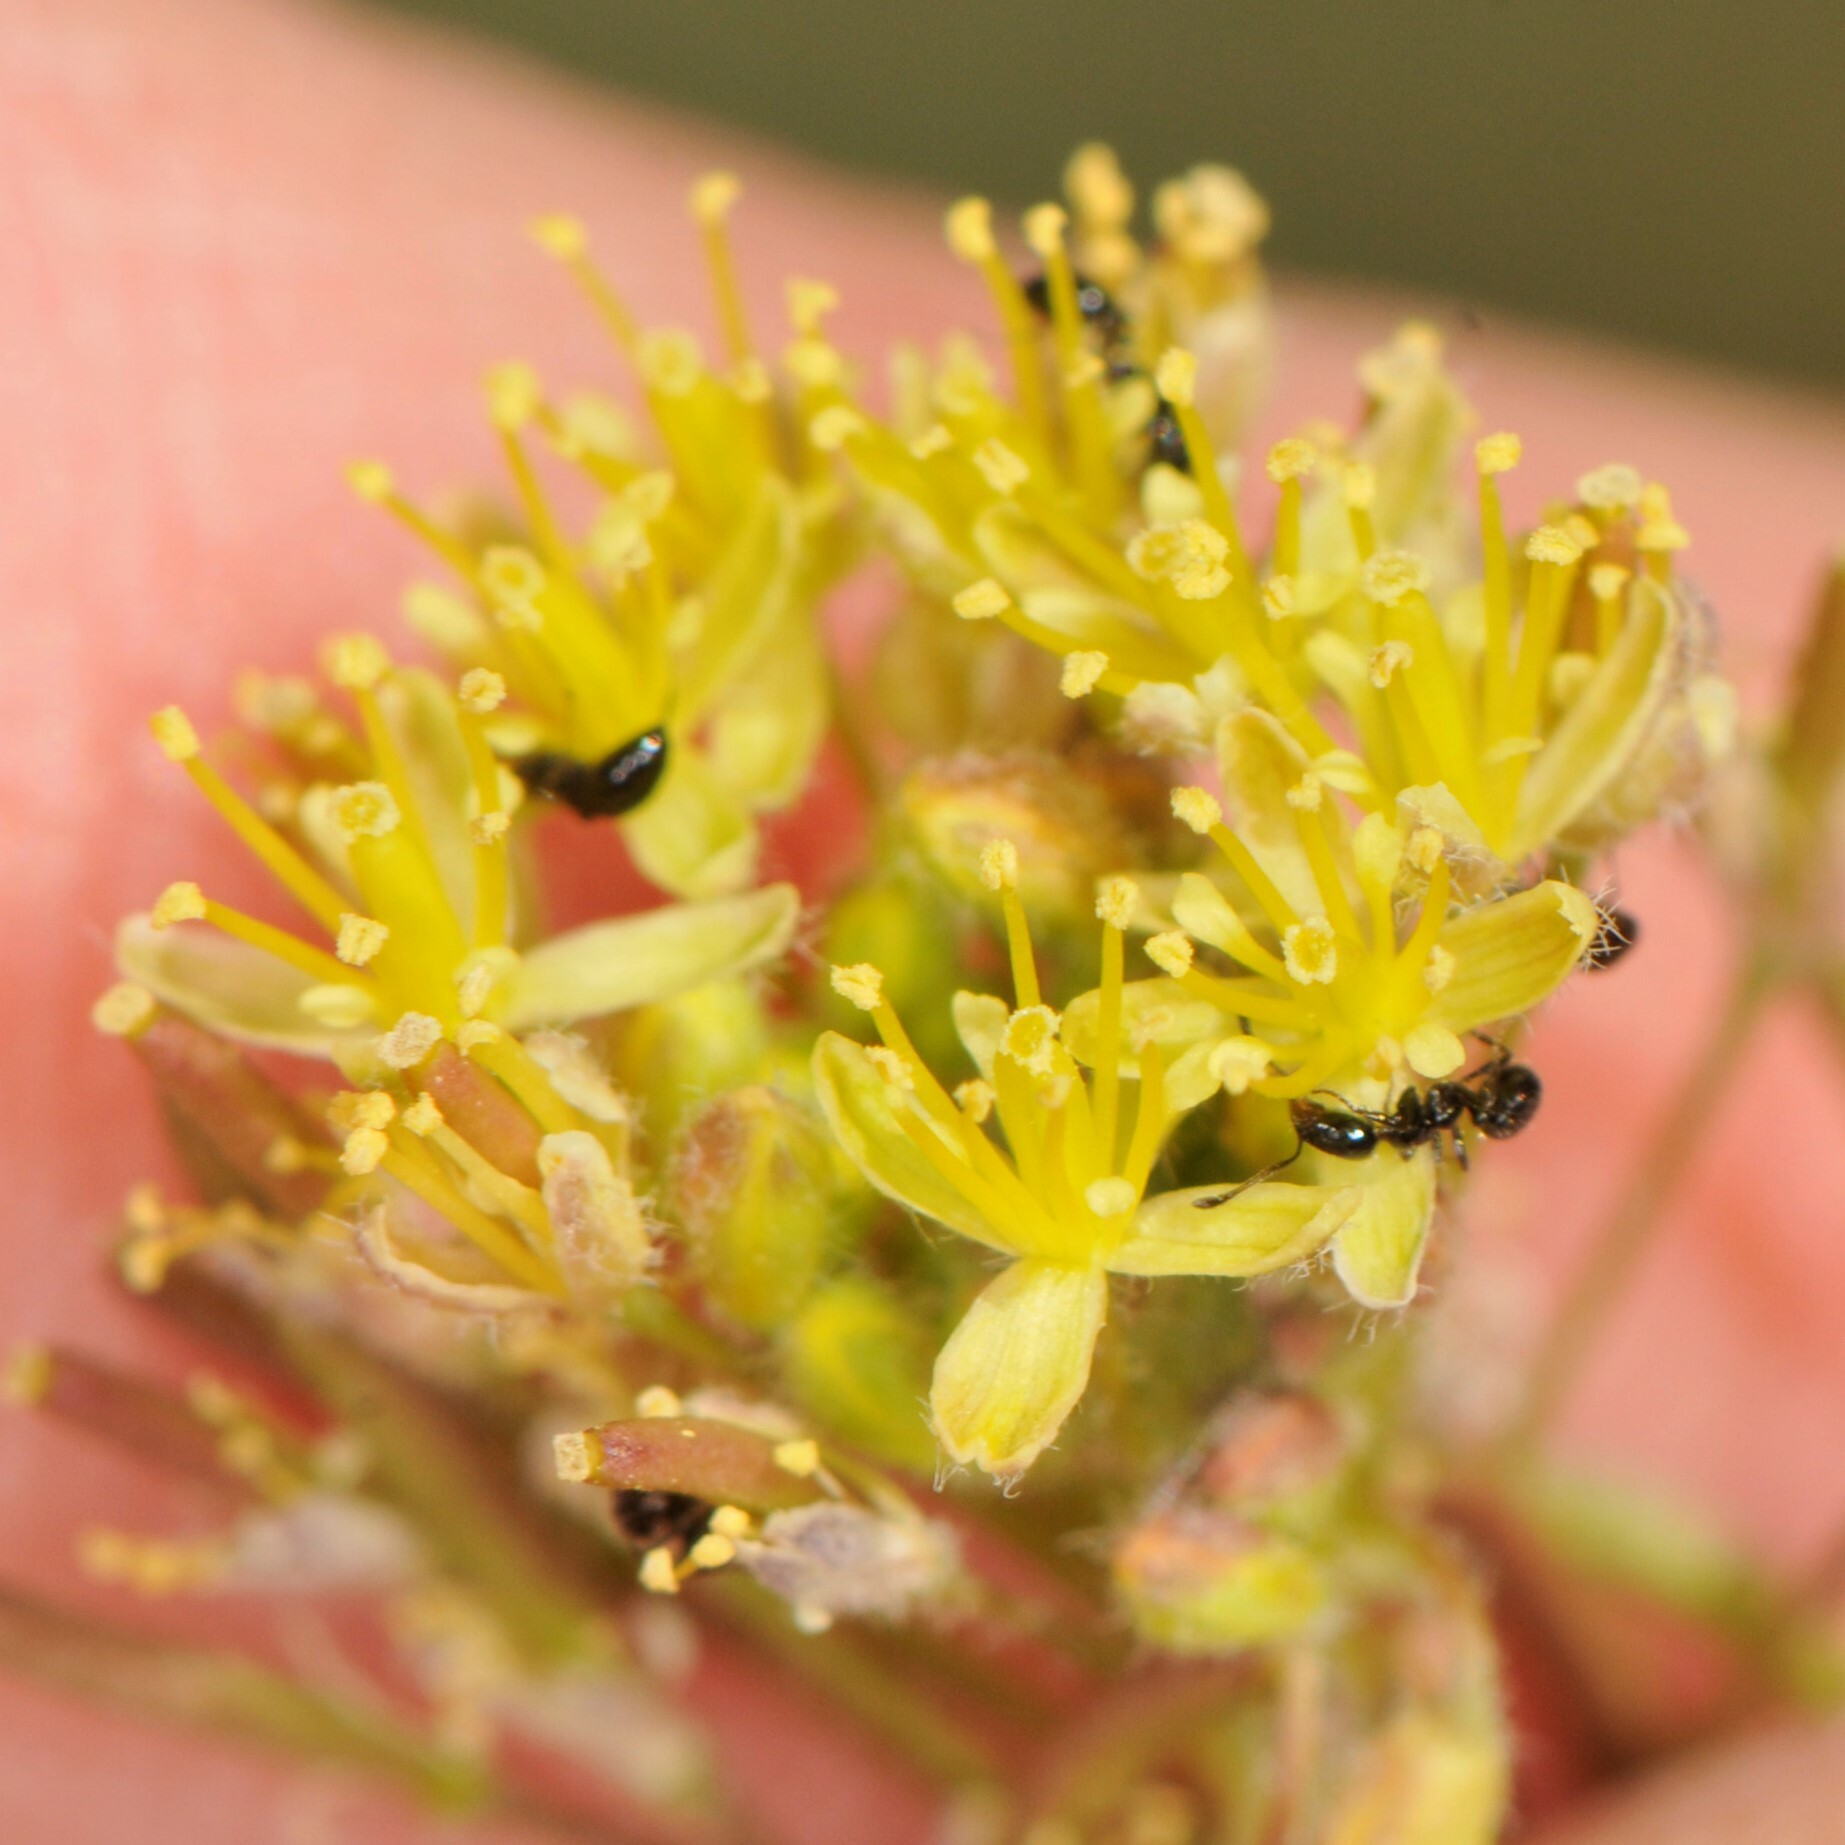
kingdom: Animalia
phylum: Arthropoda
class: Insecta
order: Hymenoptera
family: Formicidae
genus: Monomorium
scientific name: Monomorium
